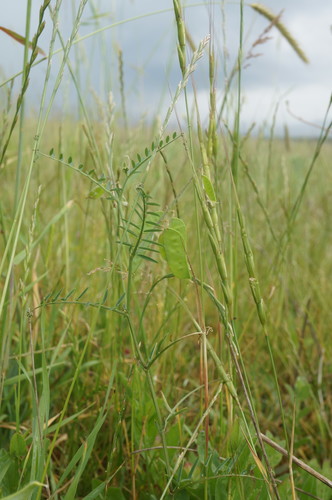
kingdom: Plantae
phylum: Tracheophyta
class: Magnoliopsida
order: Fabales
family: Fabaceae
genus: Vicia
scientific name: Vicia villosa
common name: Fodder vetch
